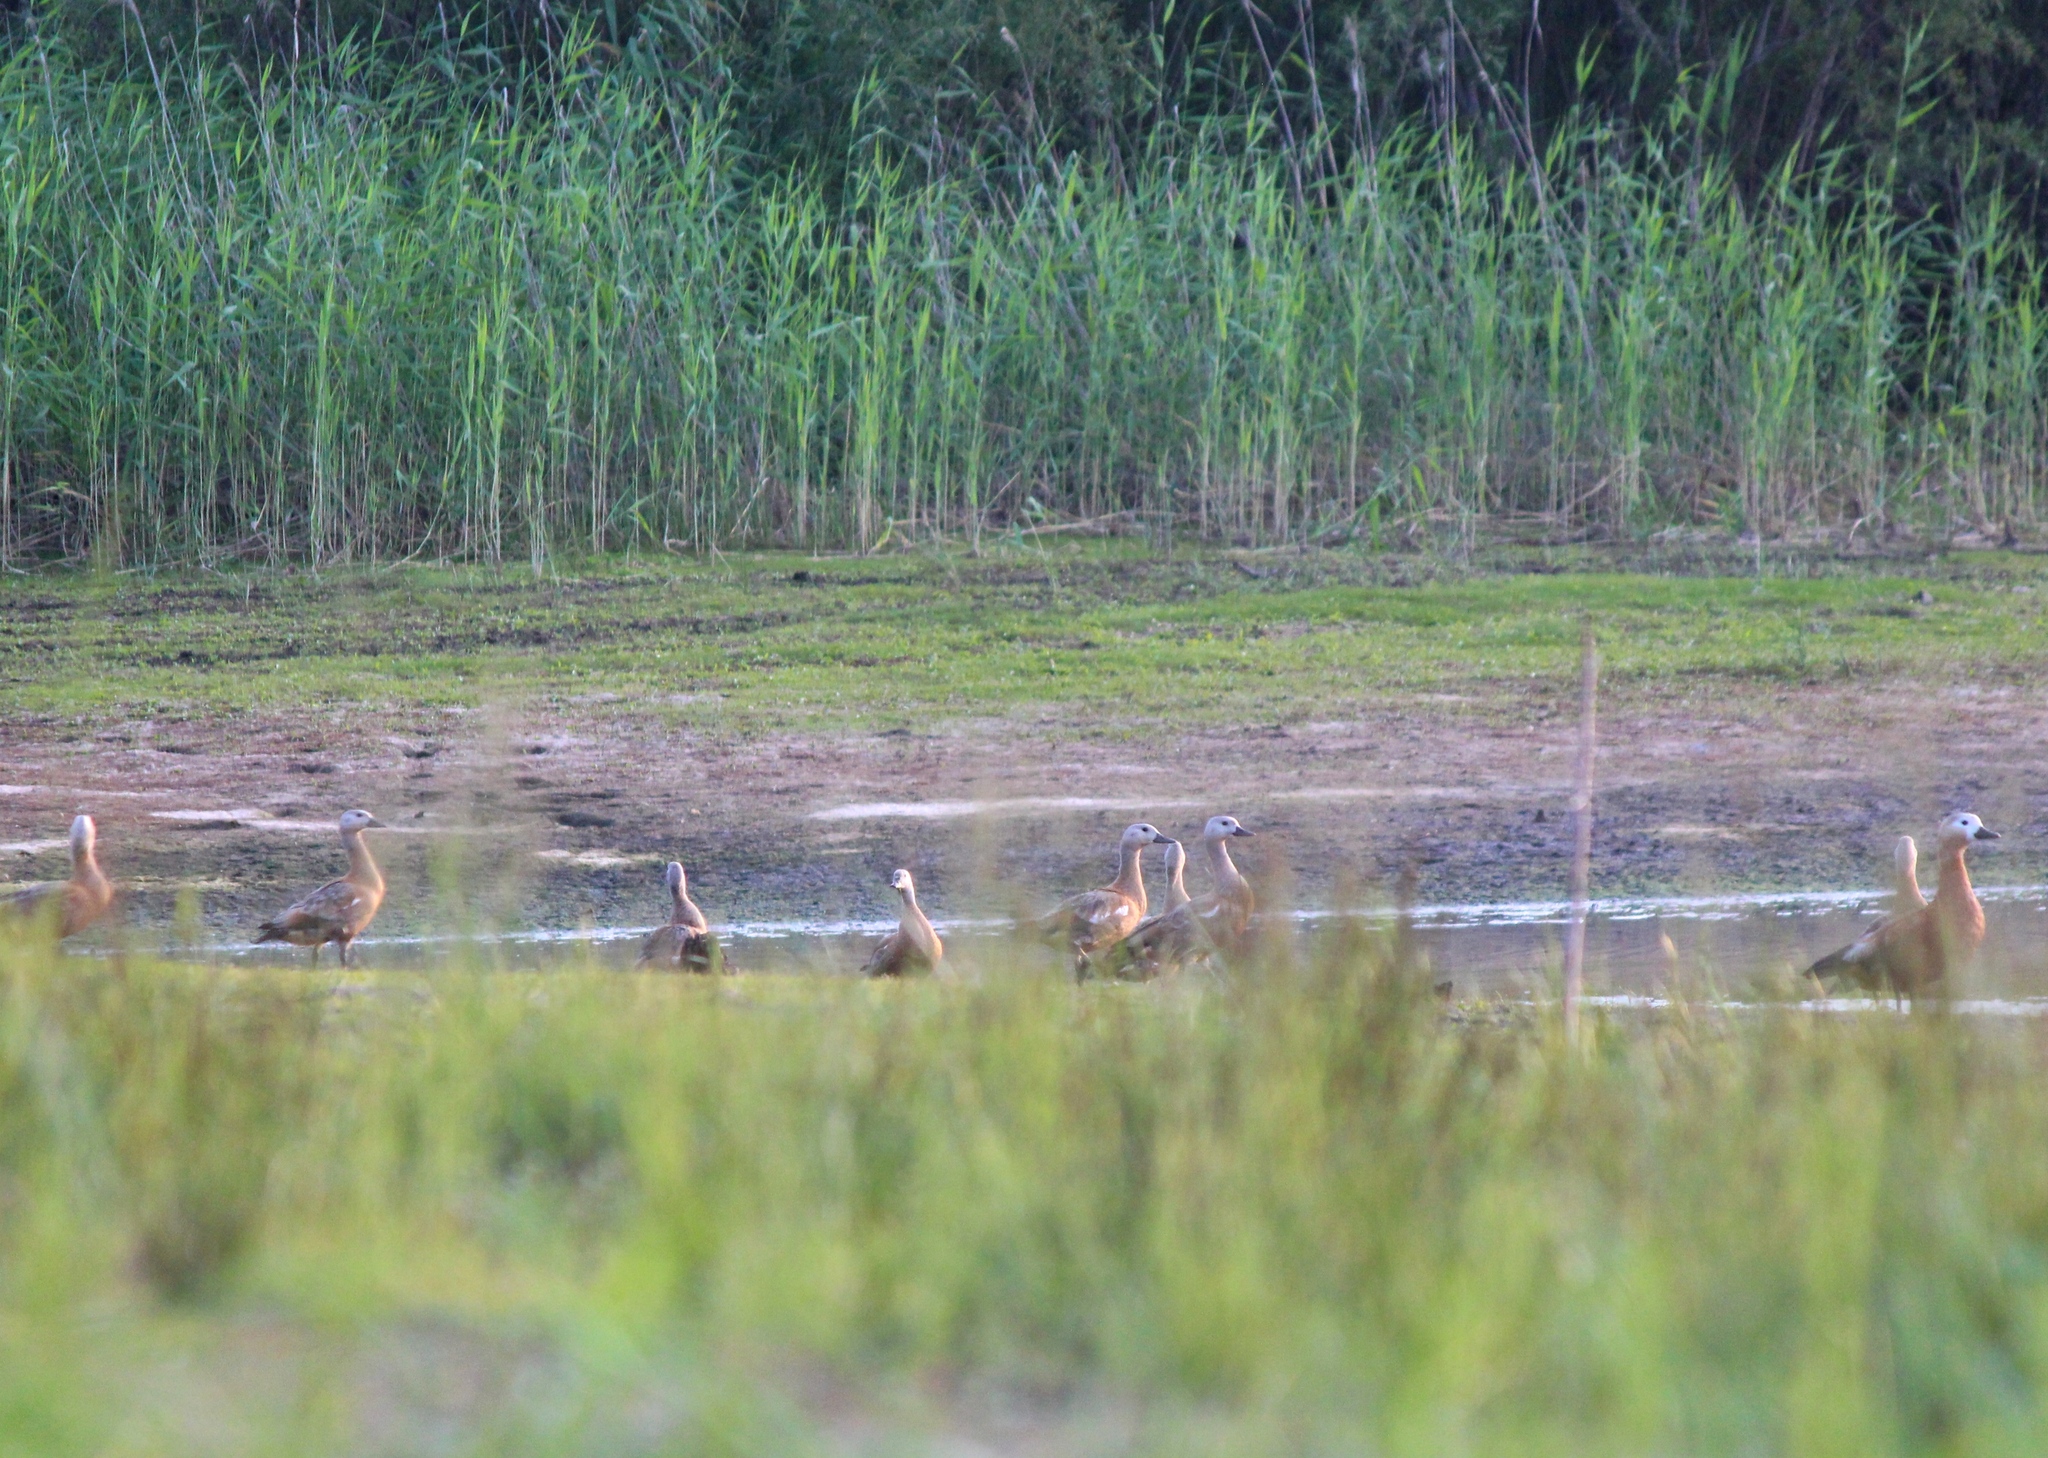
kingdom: Animalia
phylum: Chordata
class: Aves
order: Anseriformes
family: Anatidae
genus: Tadorna
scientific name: Tadorna ferruginea
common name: Ruddy shelduck
